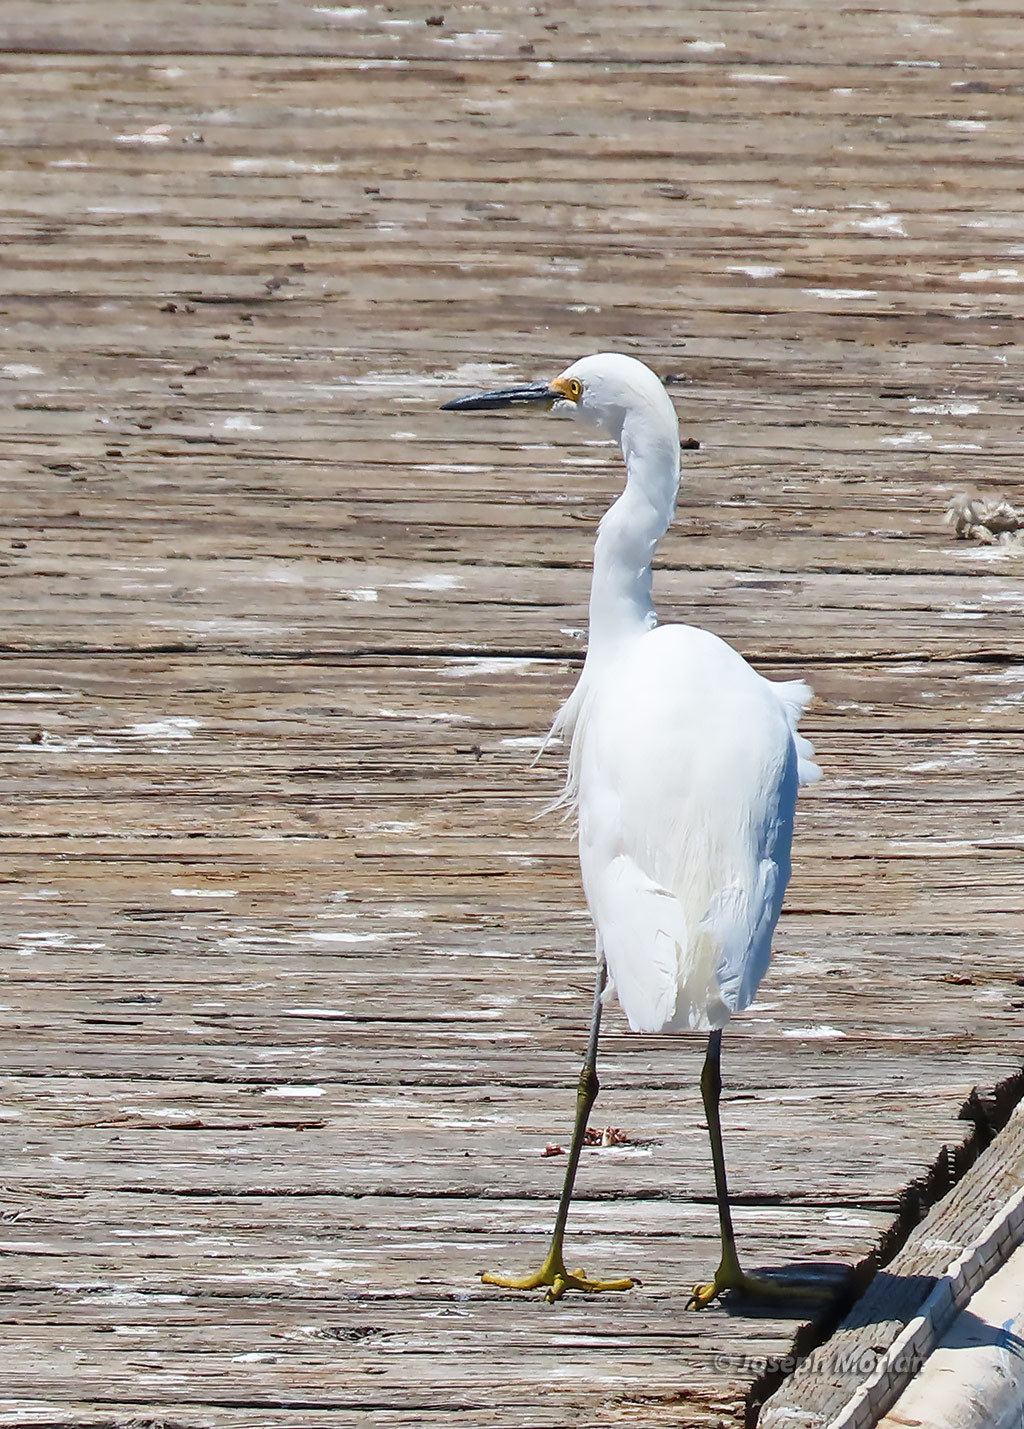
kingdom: Animalia
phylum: Chordata
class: Aves
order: Pelecaniformes
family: Ardeidae
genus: Egretta
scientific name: Egretta thula
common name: Snowy egret
